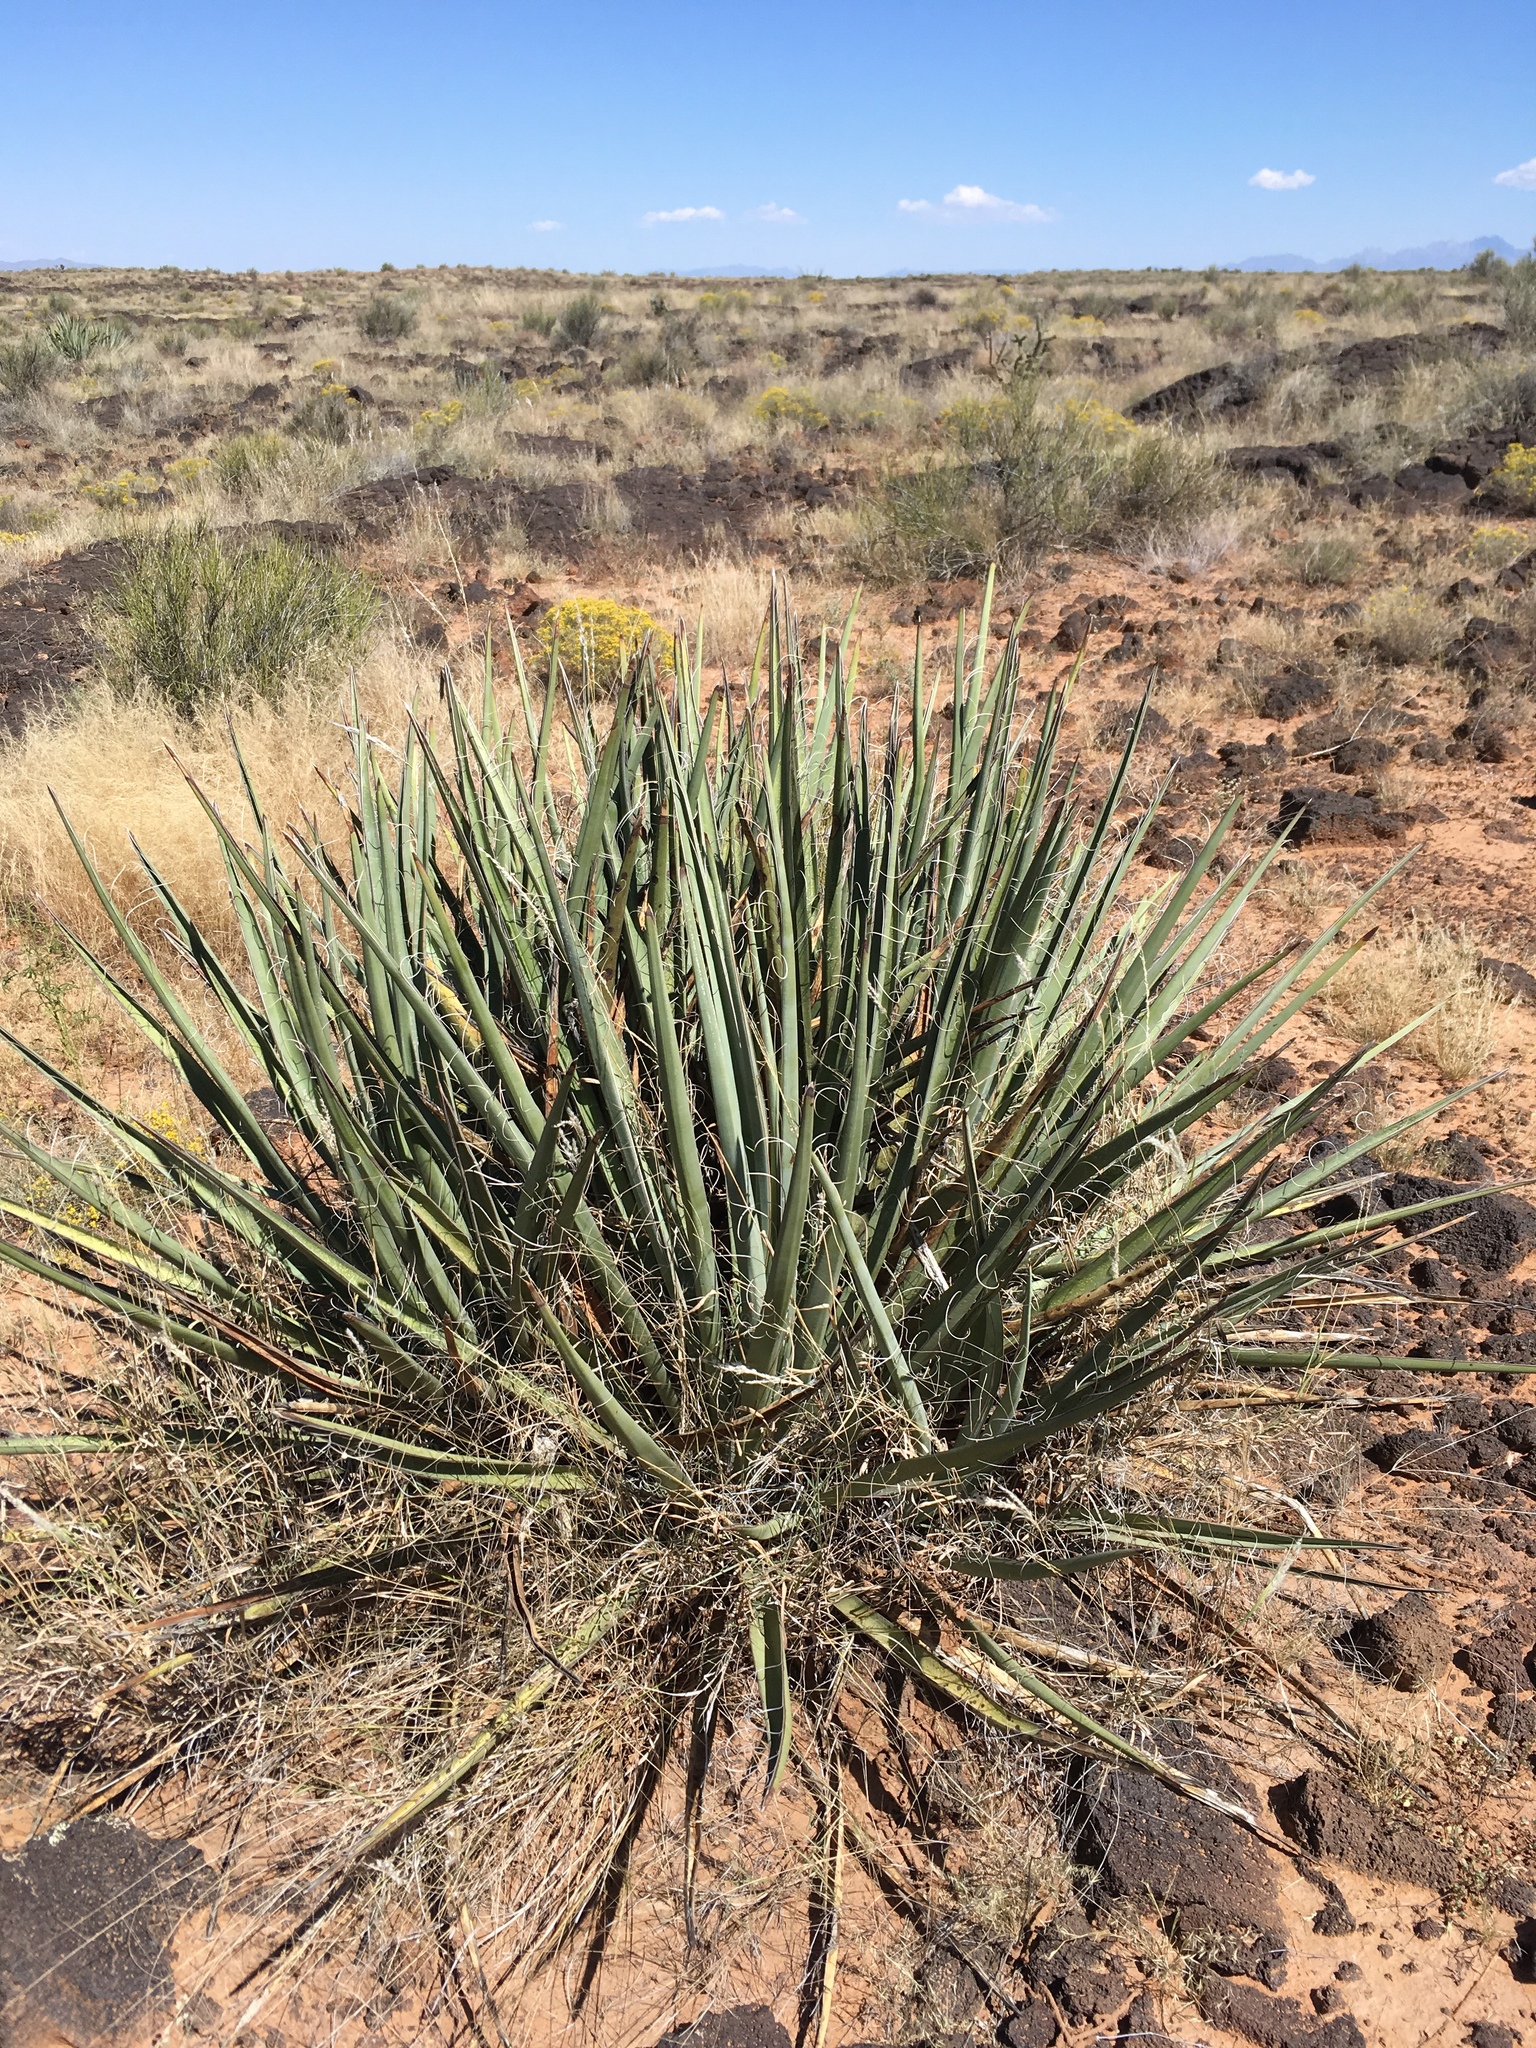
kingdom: Plantae
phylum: Tracheophyta
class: Liliopsida
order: Asparagales
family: Asparagaceae
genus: Yucca
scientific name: Yucca baccata
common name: Banana yucca
